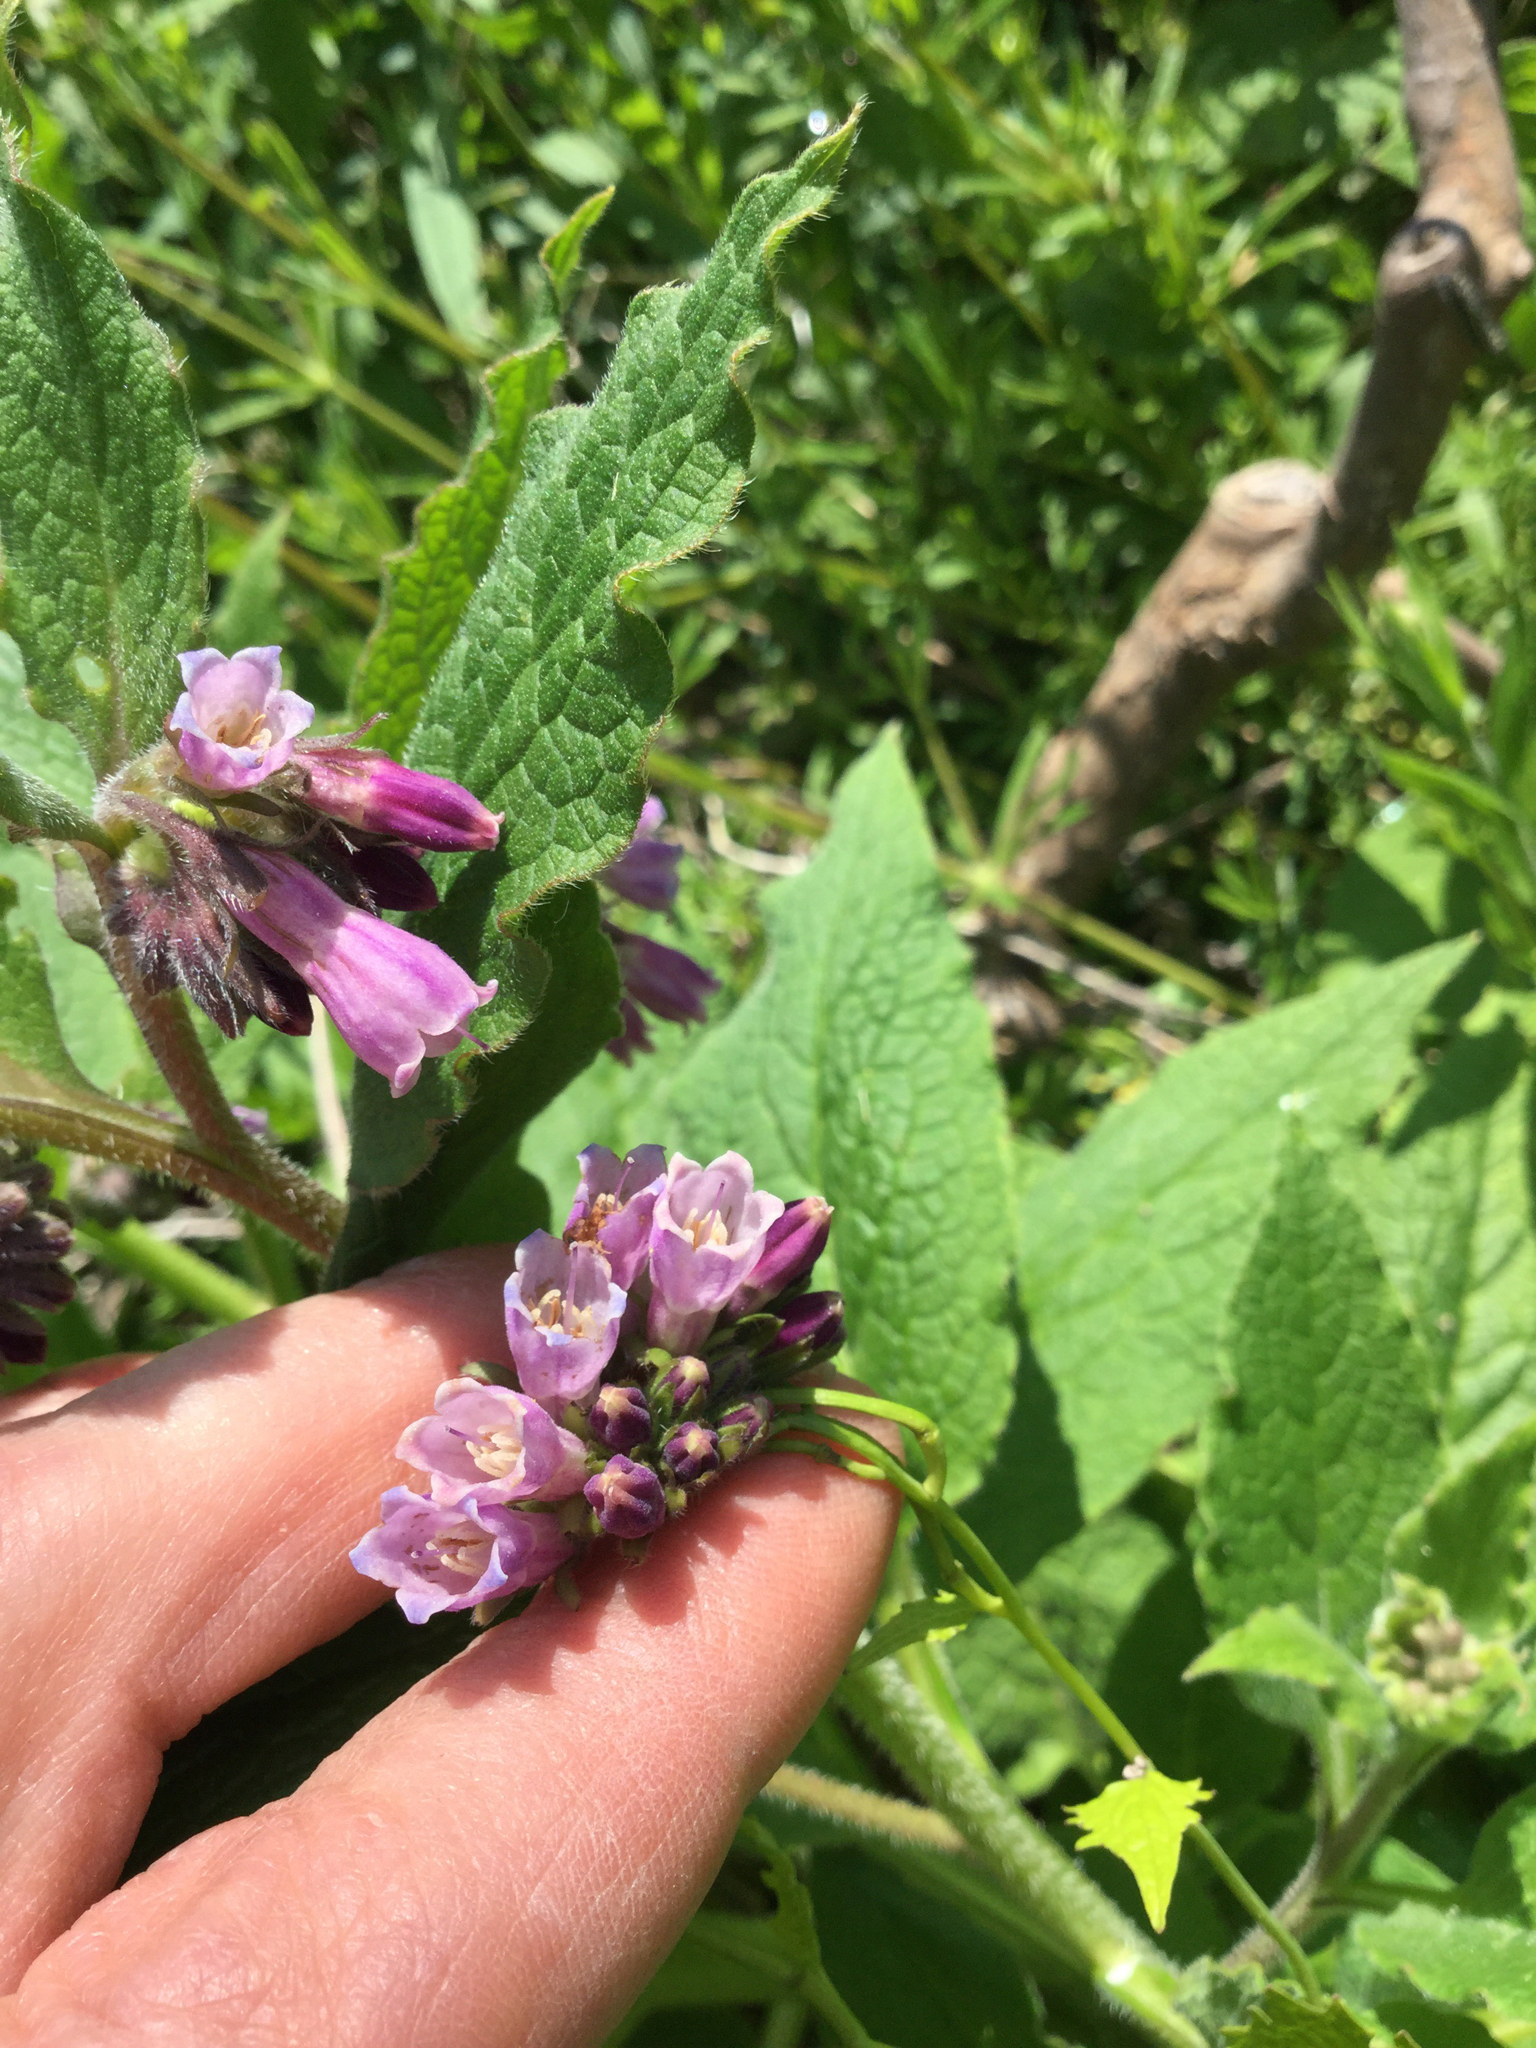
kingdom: Plantae
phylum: Tracheophyta
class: Magnoliopsida
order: Boraginales
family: Boraginaceae
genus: Symphytum
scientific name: Symphytum uplandicum
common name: Russian comfrey
